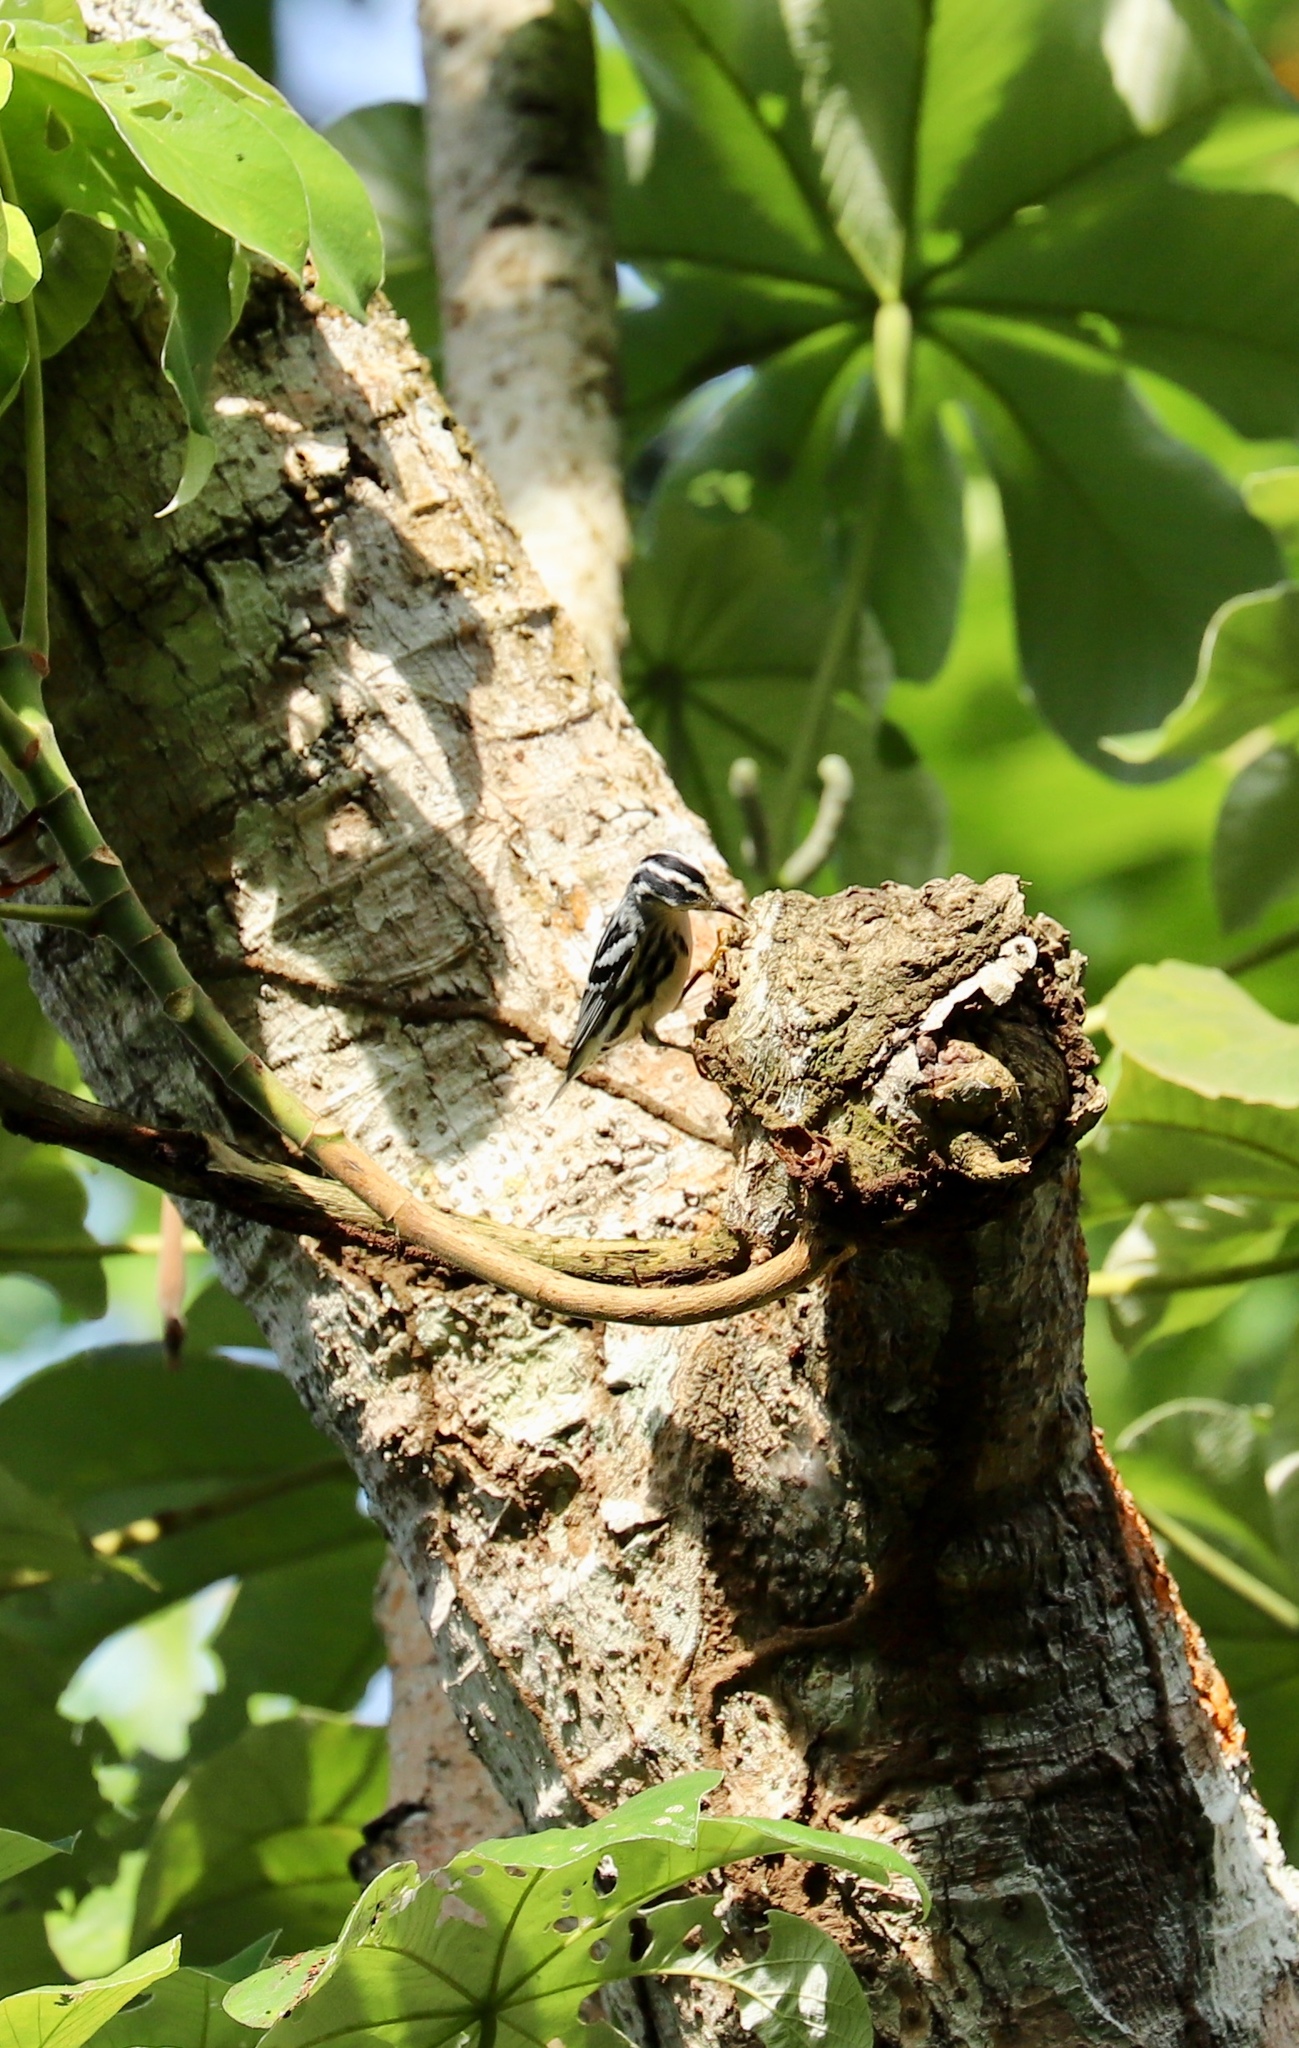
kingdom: Animalia
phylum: Chordata
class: Aves
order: Passeriformes
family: Parulidae
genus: Mniotilta
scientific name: Mniotilta varia
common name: Black-and-white warbler
